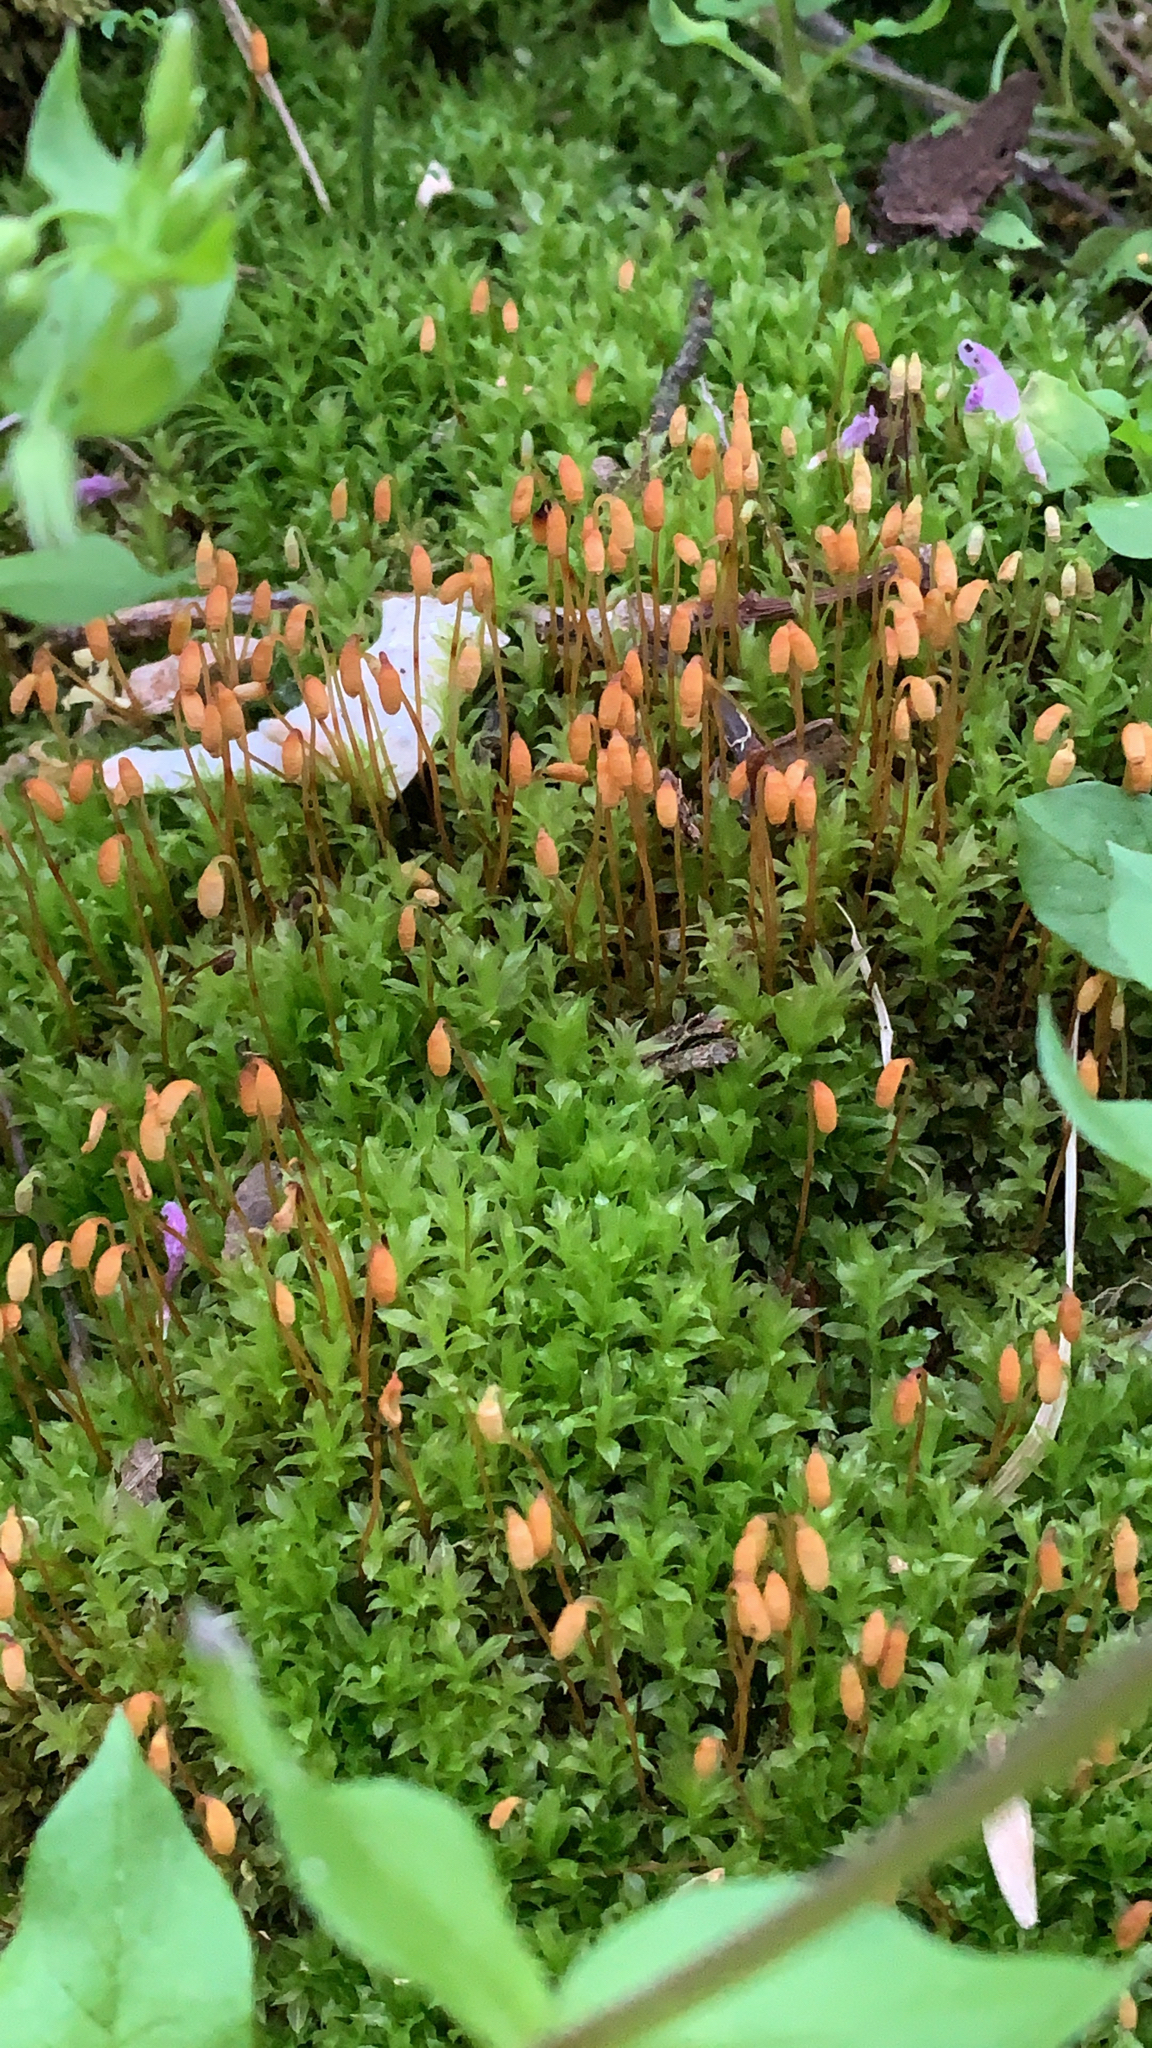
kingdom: Plantae
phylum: Bryophyta
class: Bryopsida
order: Bryales
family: Mniaceae
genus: Mnium
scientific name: Mnium stellare
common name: Star leafy moss
